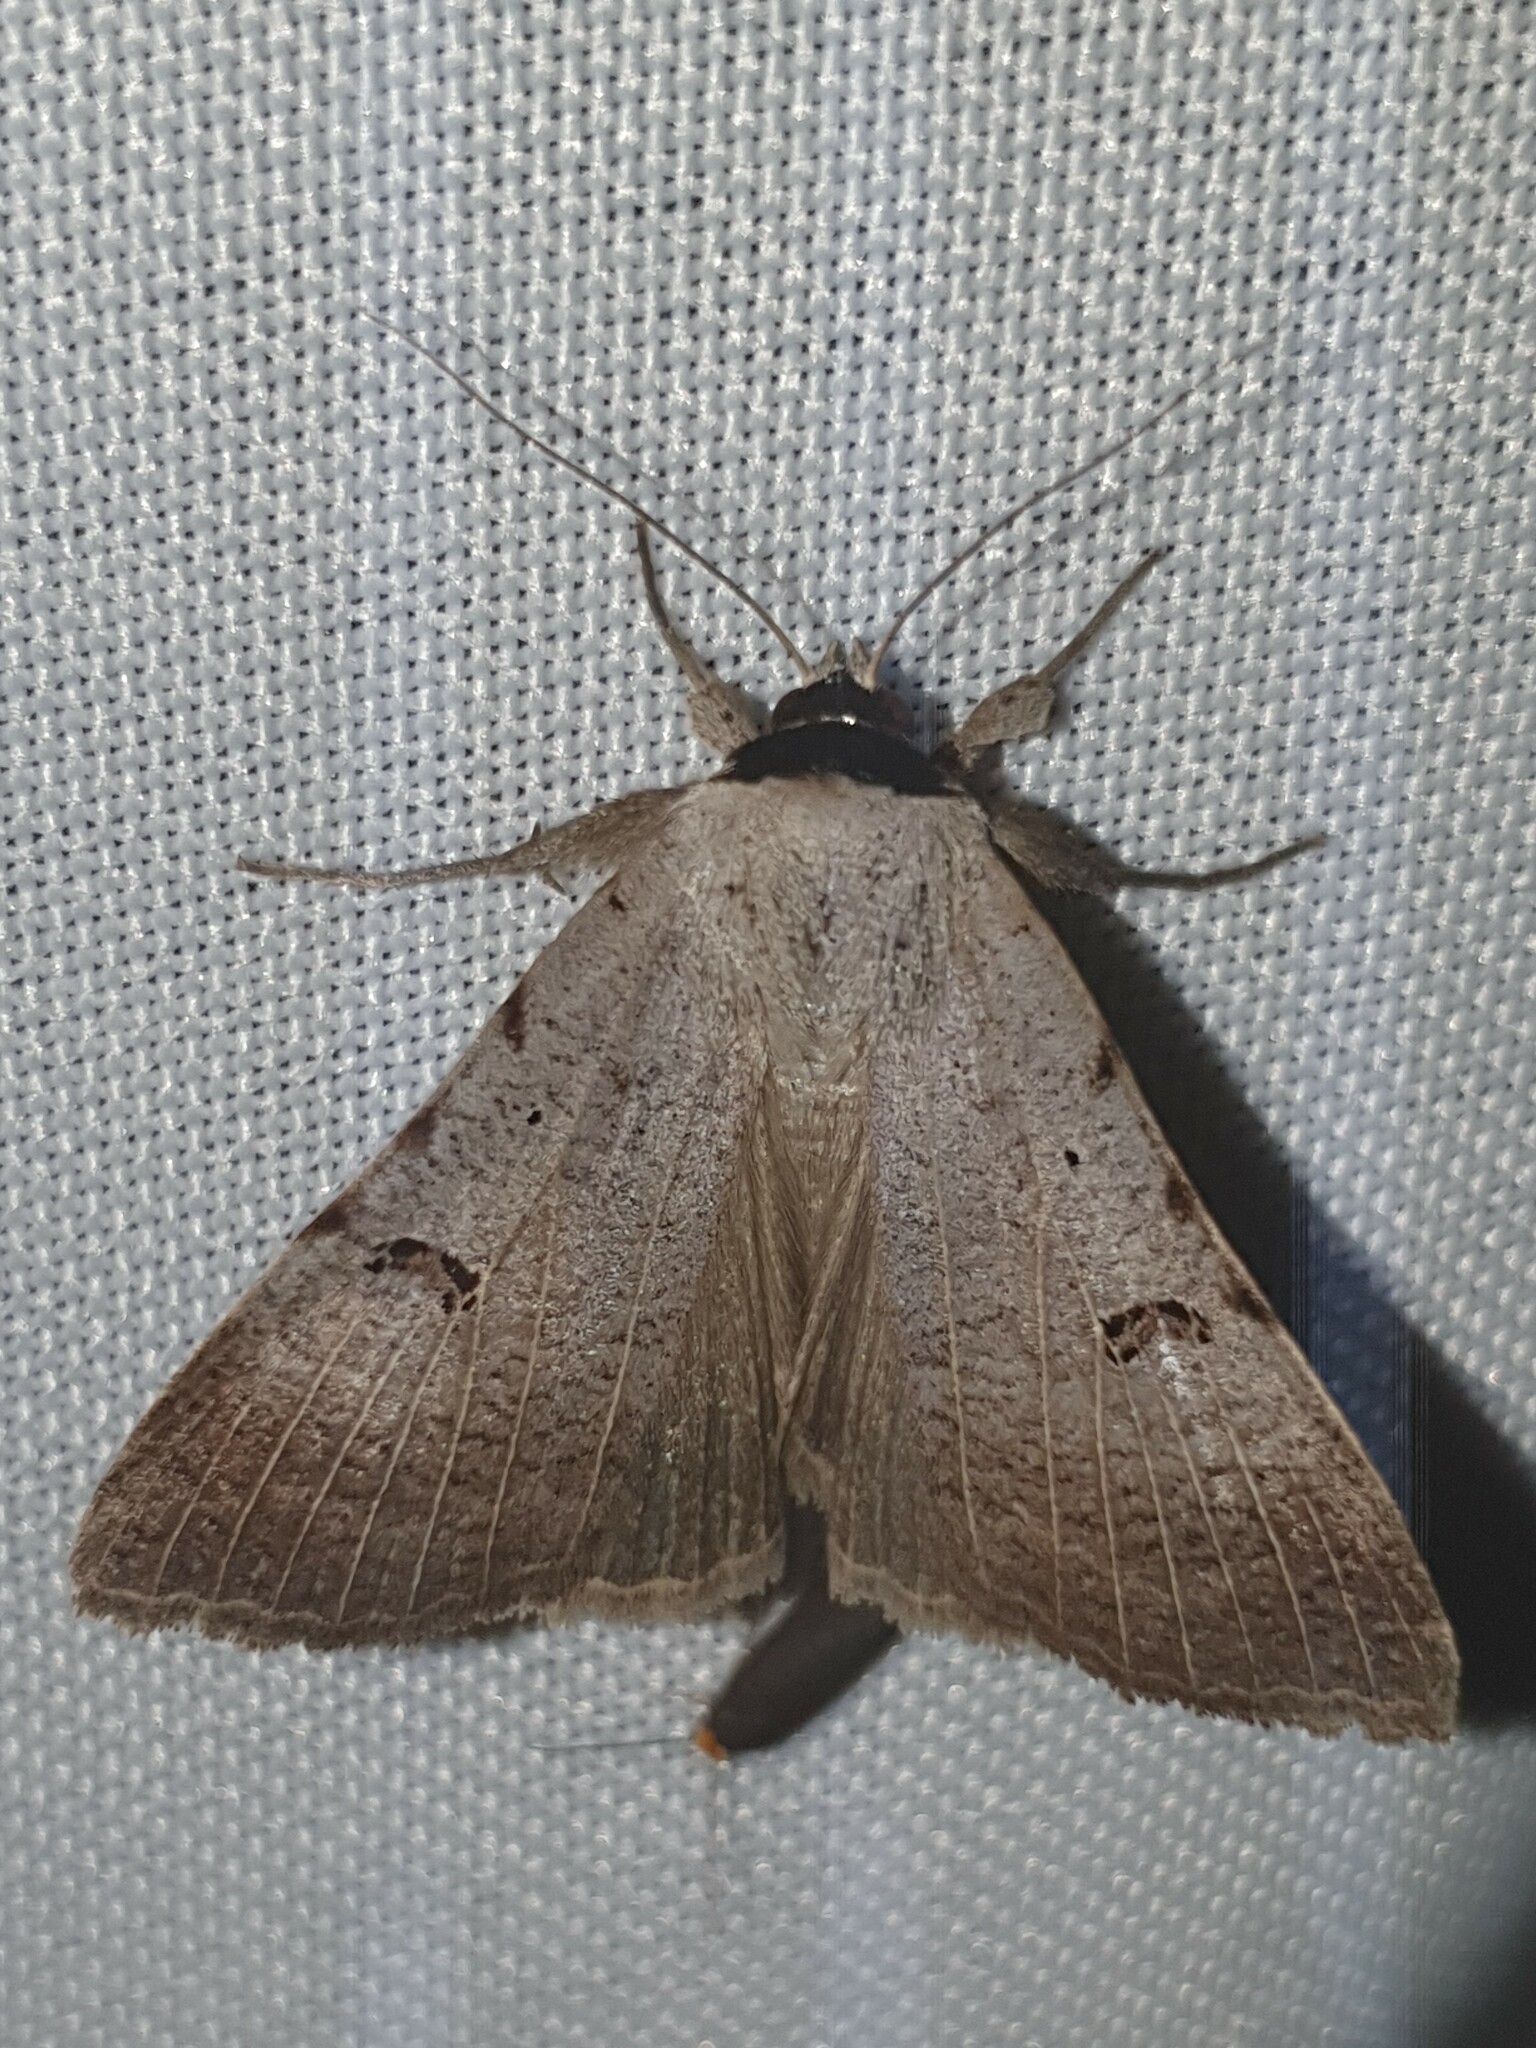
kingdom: Animalia
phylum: Arthropoda
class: Insecta
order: Lepidoptera
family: Erebidae
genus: Lygephila
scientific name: Lygephila craccae
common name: Scarce blackneck
